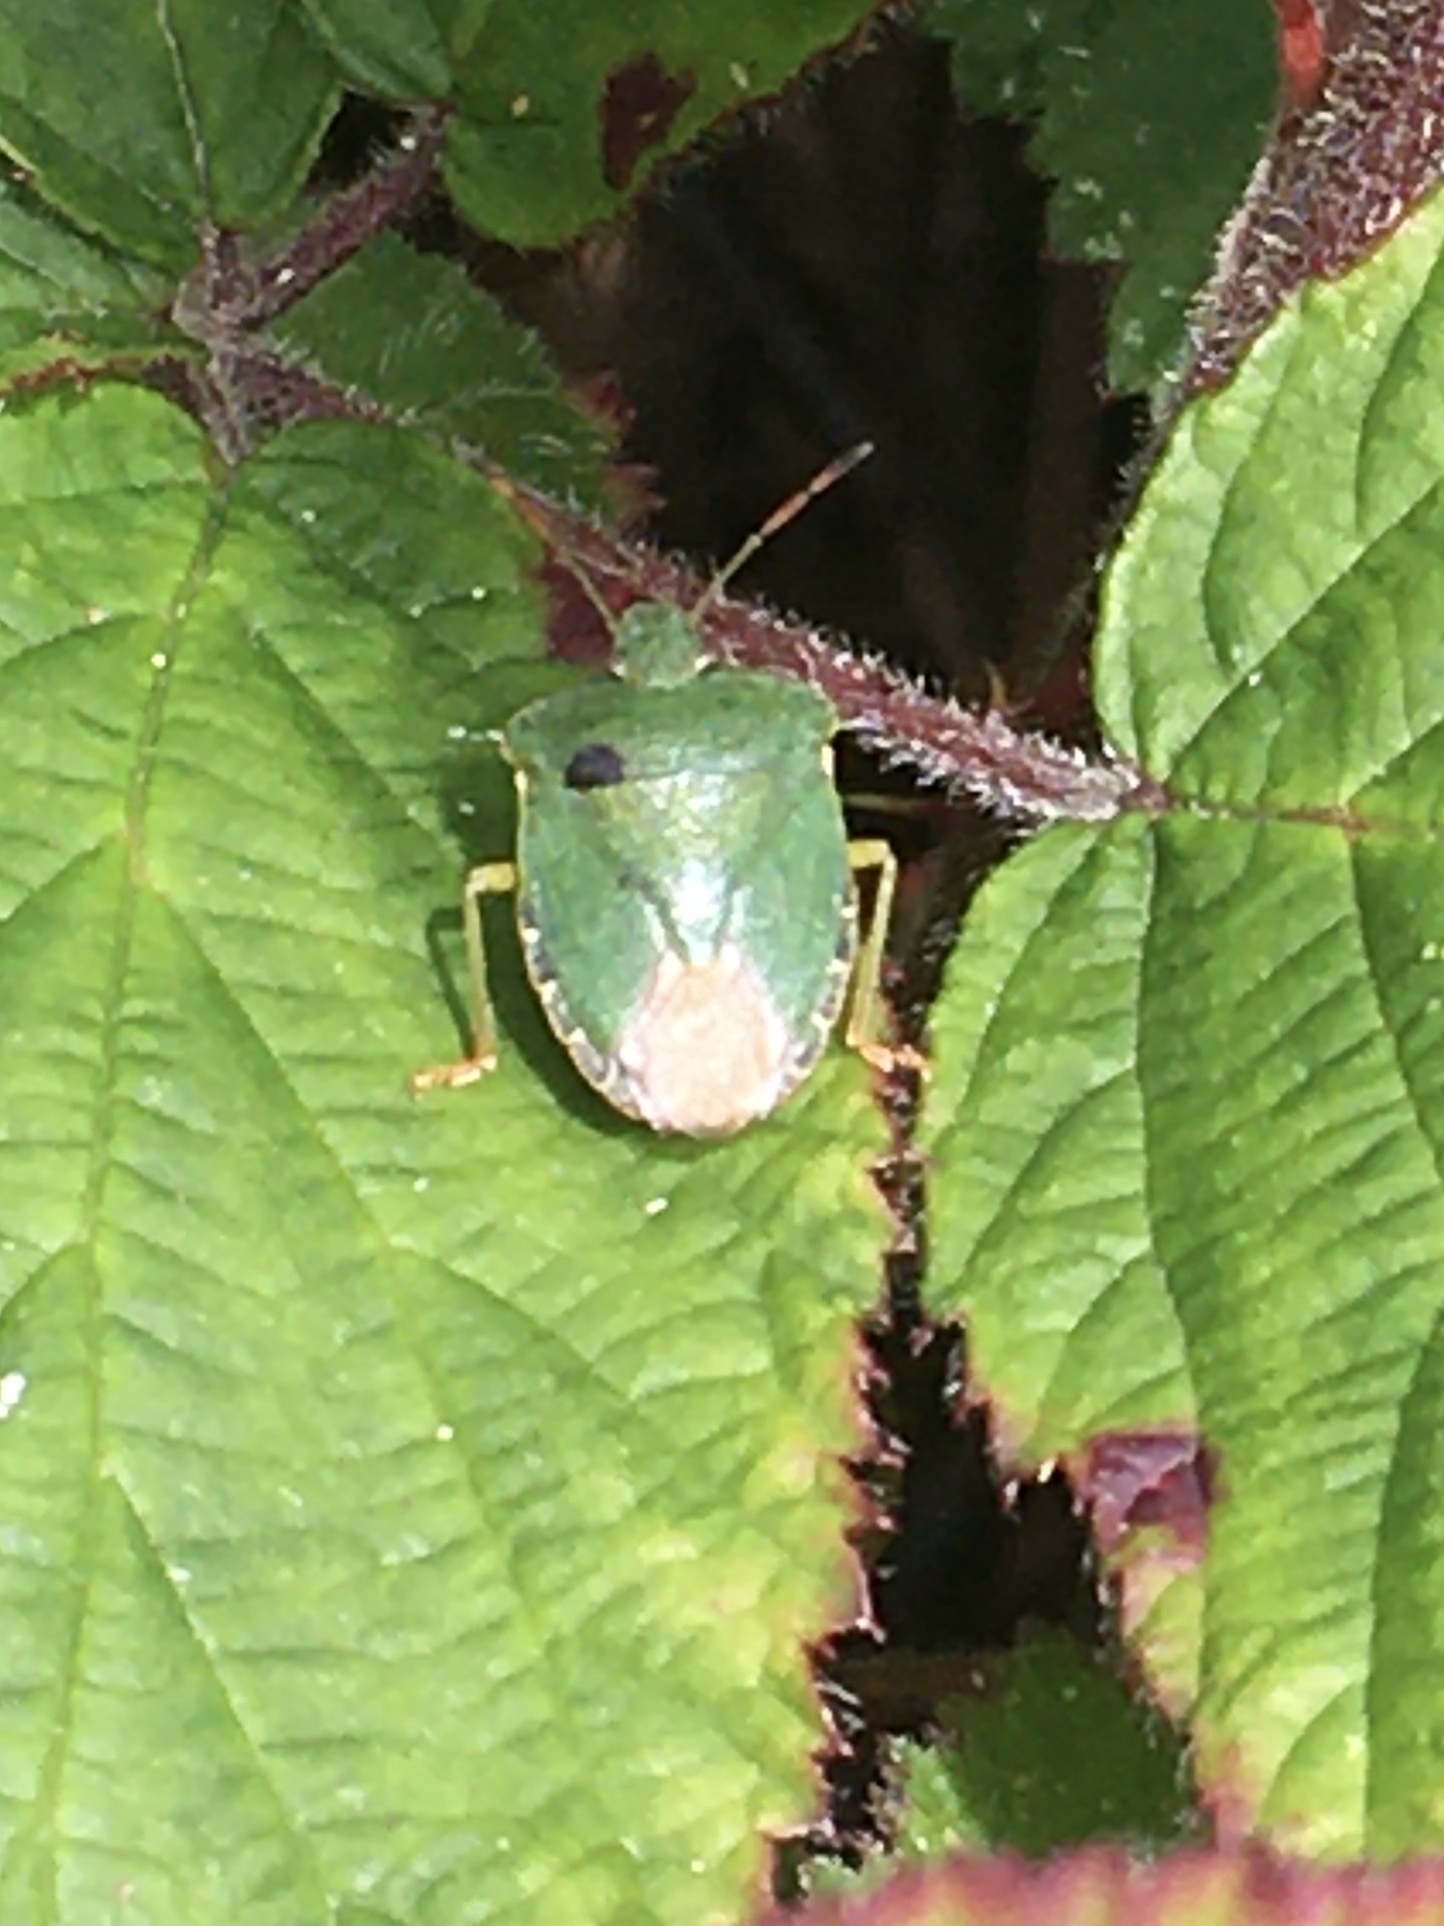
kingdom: Animalia
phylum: Arthropoda
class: Insecta
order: Hemiptera
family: Pentatomidae
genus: Palomena
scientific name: Palomena prasina
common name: Green shieldbug
